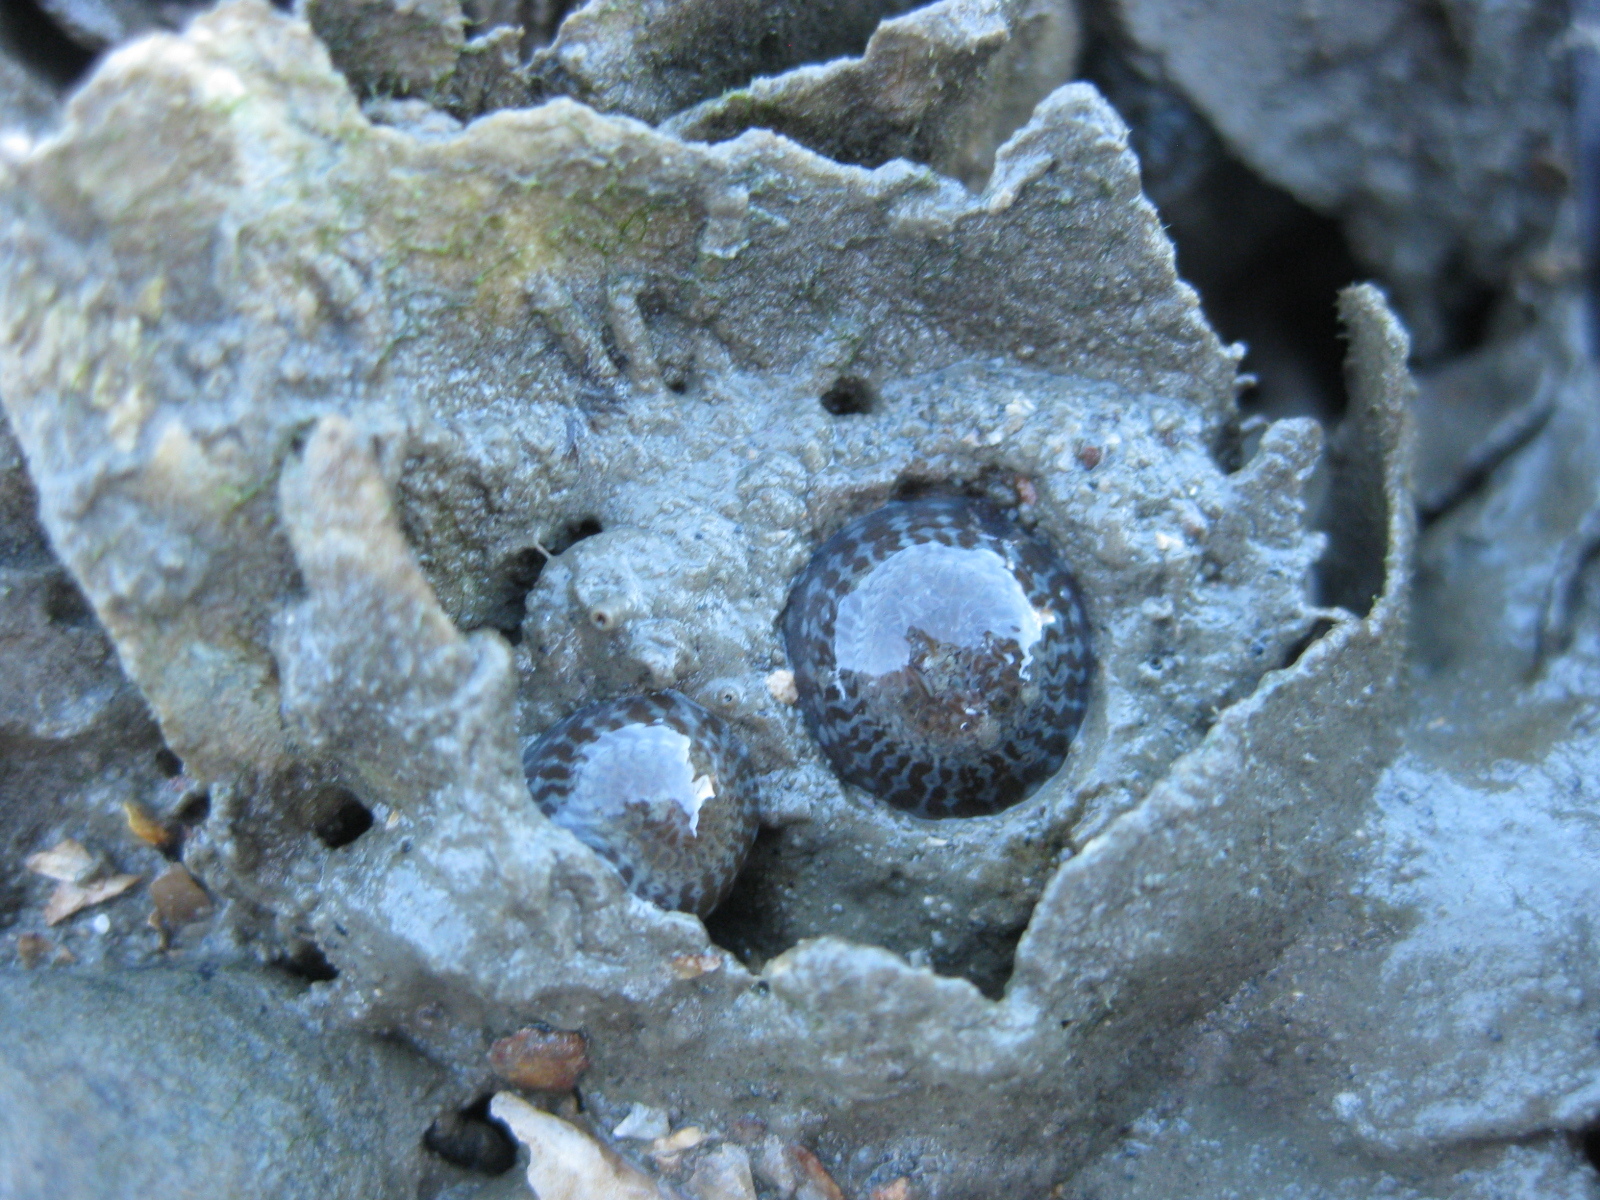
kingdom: Animalia
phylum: Cnidaria
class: Anthozoa
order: Actiniaria
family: Actiniidae
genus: Anthopleura
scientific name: Anthopleura hermaphroditica
